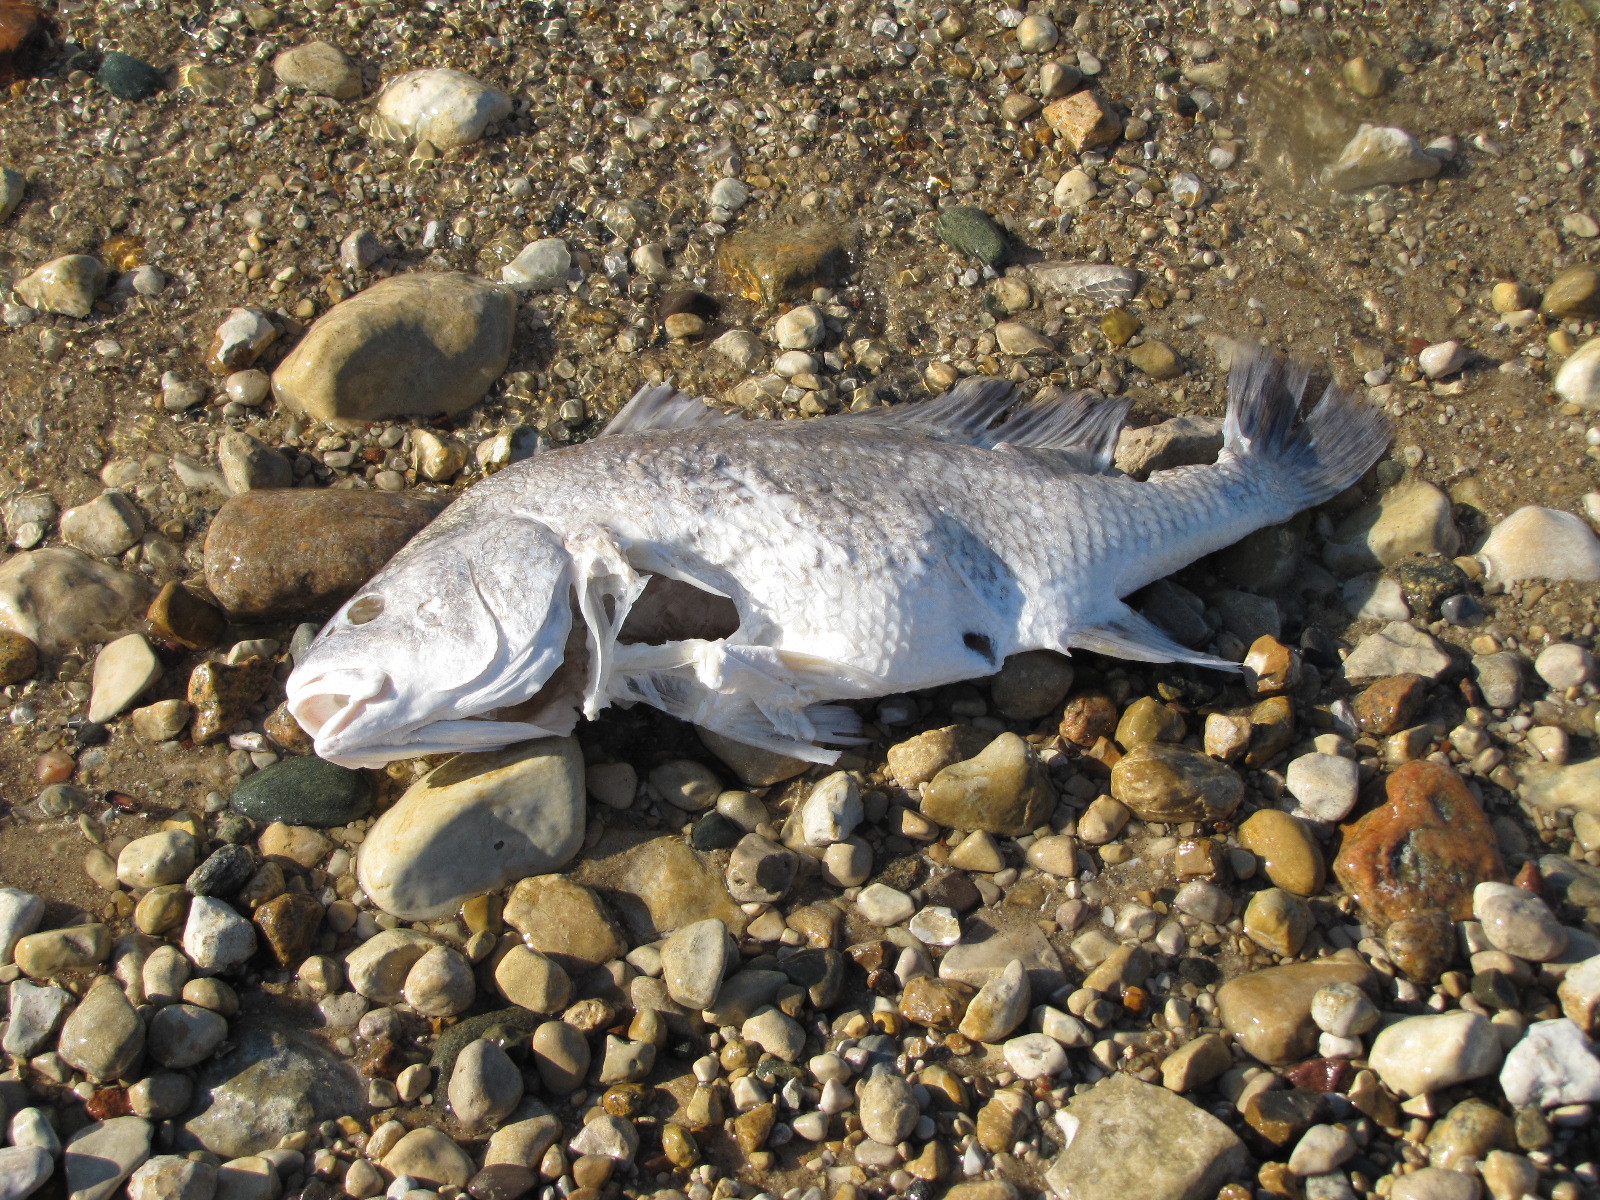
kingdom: Animalia
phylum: Chordata
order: Perciformes
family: Sciaenidae
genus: Aplodinotus
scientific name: Aplodinotus grunniens
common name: Freshwater drum
